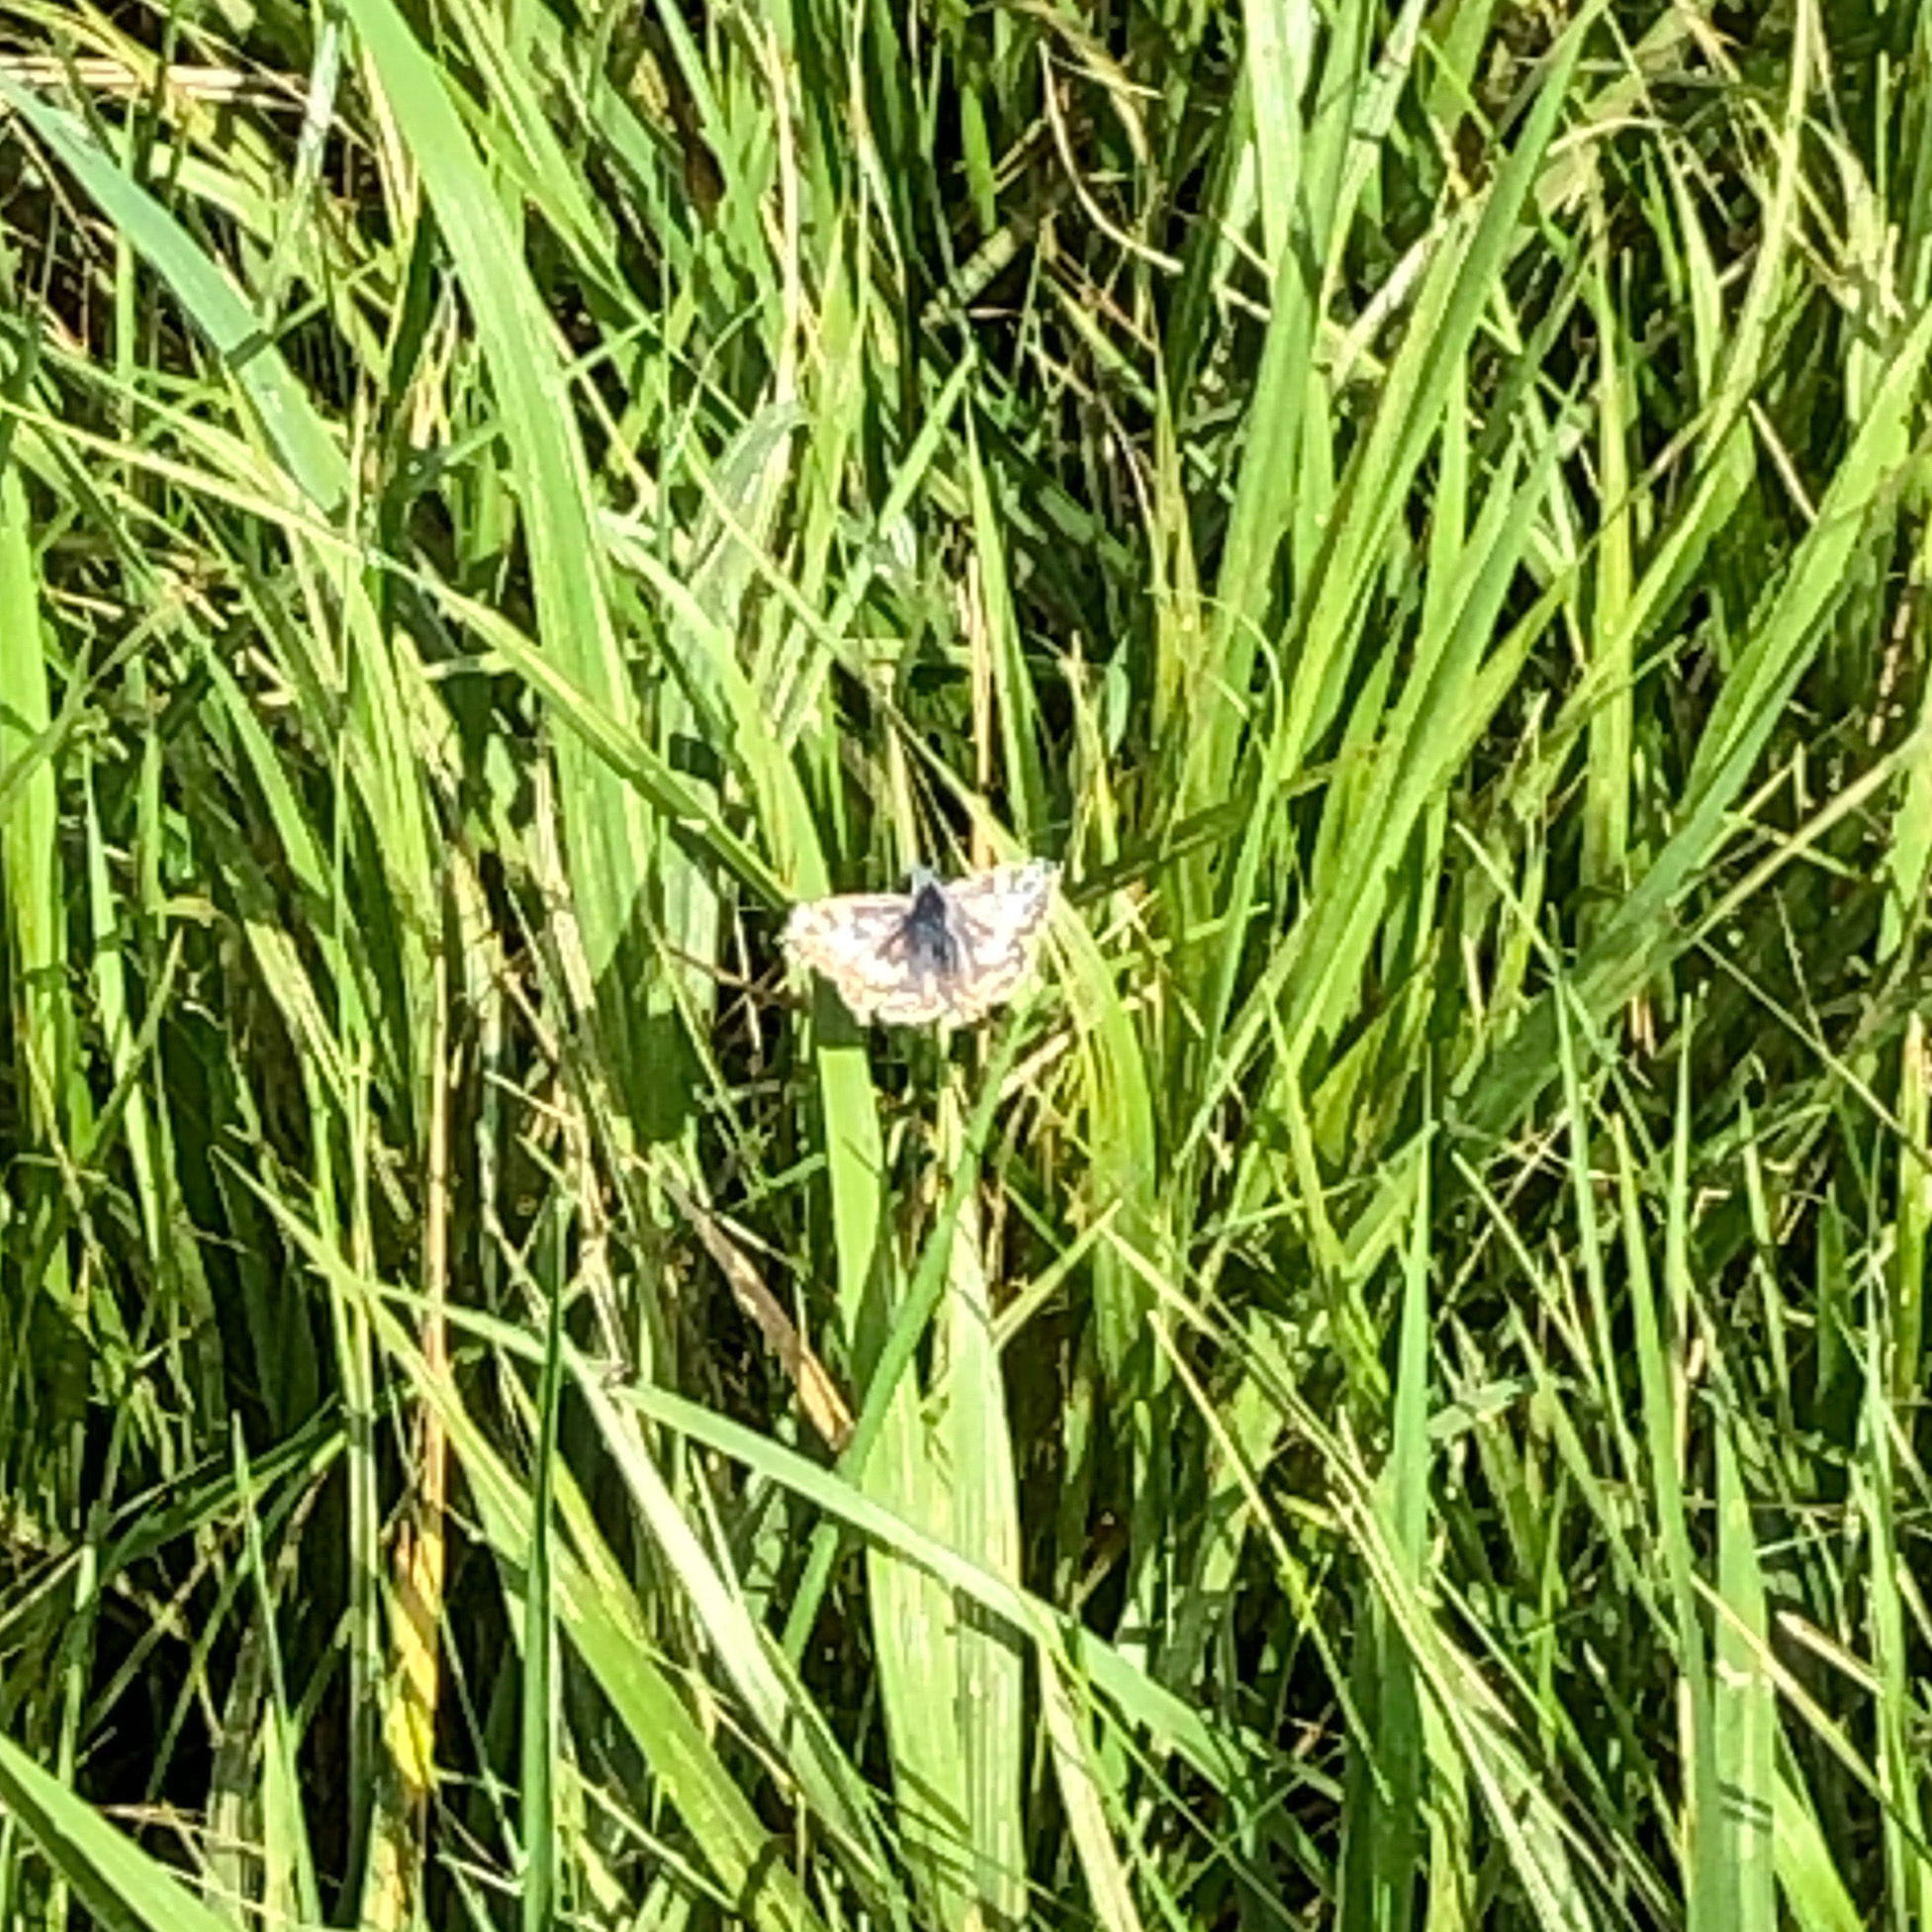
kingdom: Animalia
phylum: Arthropoda
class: Insecta
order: Lepidoptera
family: Hesperiidae
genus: Burnsius
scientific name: Burnsius communis
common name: Common checkered-skipper
